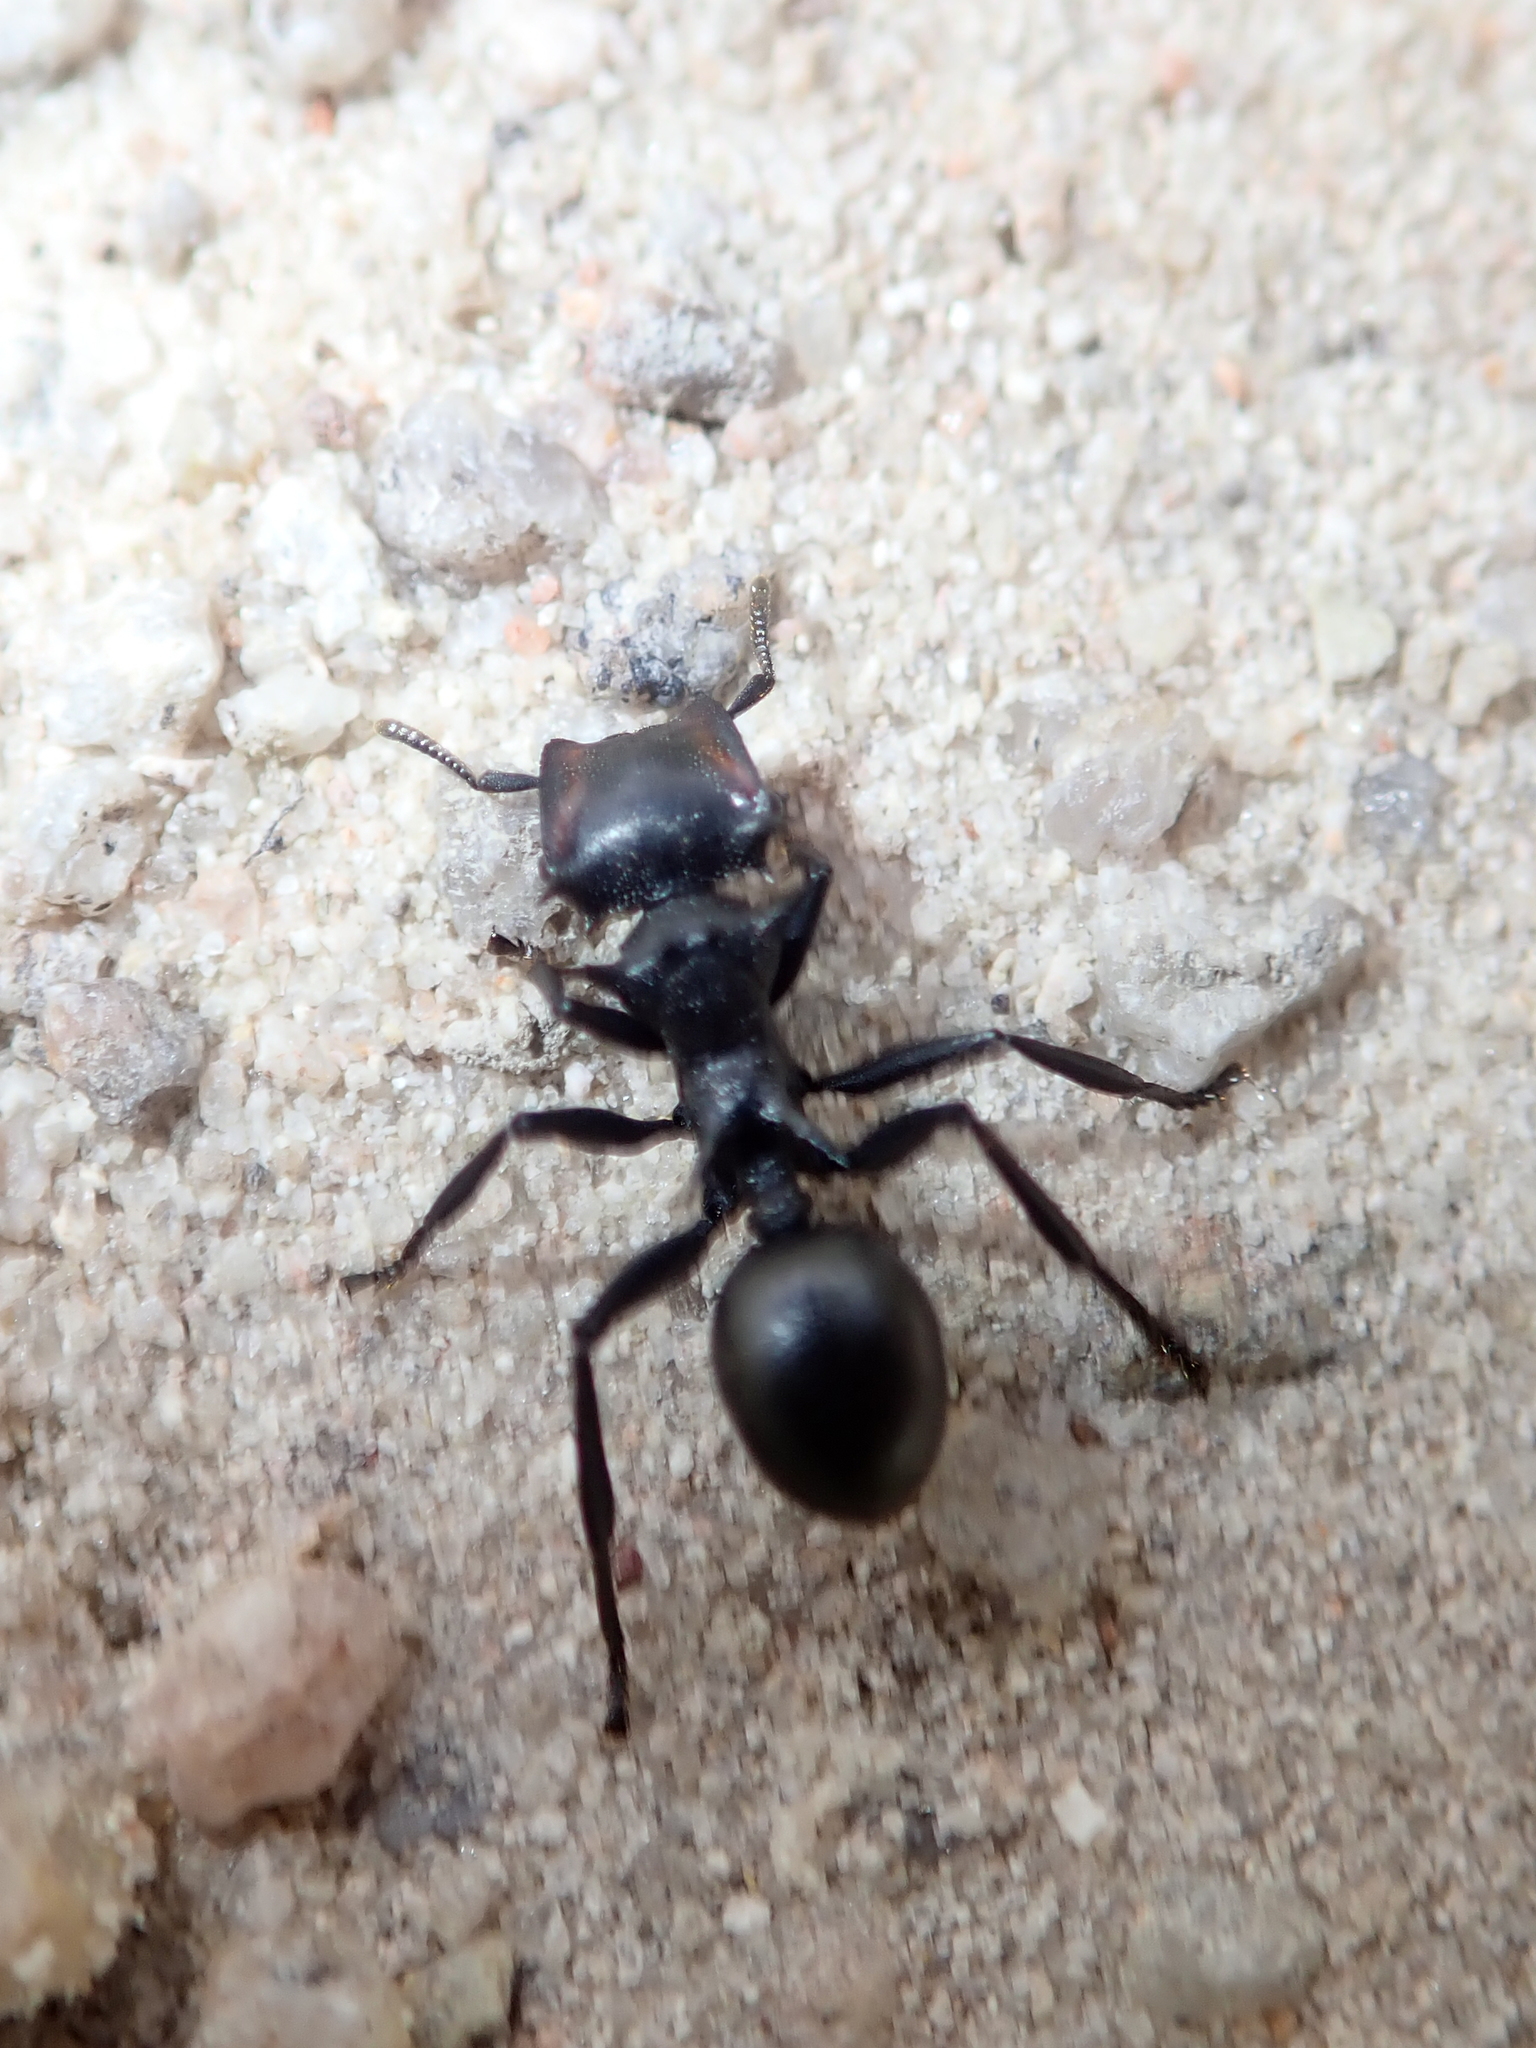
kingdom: Animalia
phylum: Arthropoda
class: Insecta
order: Hymenoptera
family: Formicidae
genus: Cephalotes
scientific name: Cephalotes atratus
